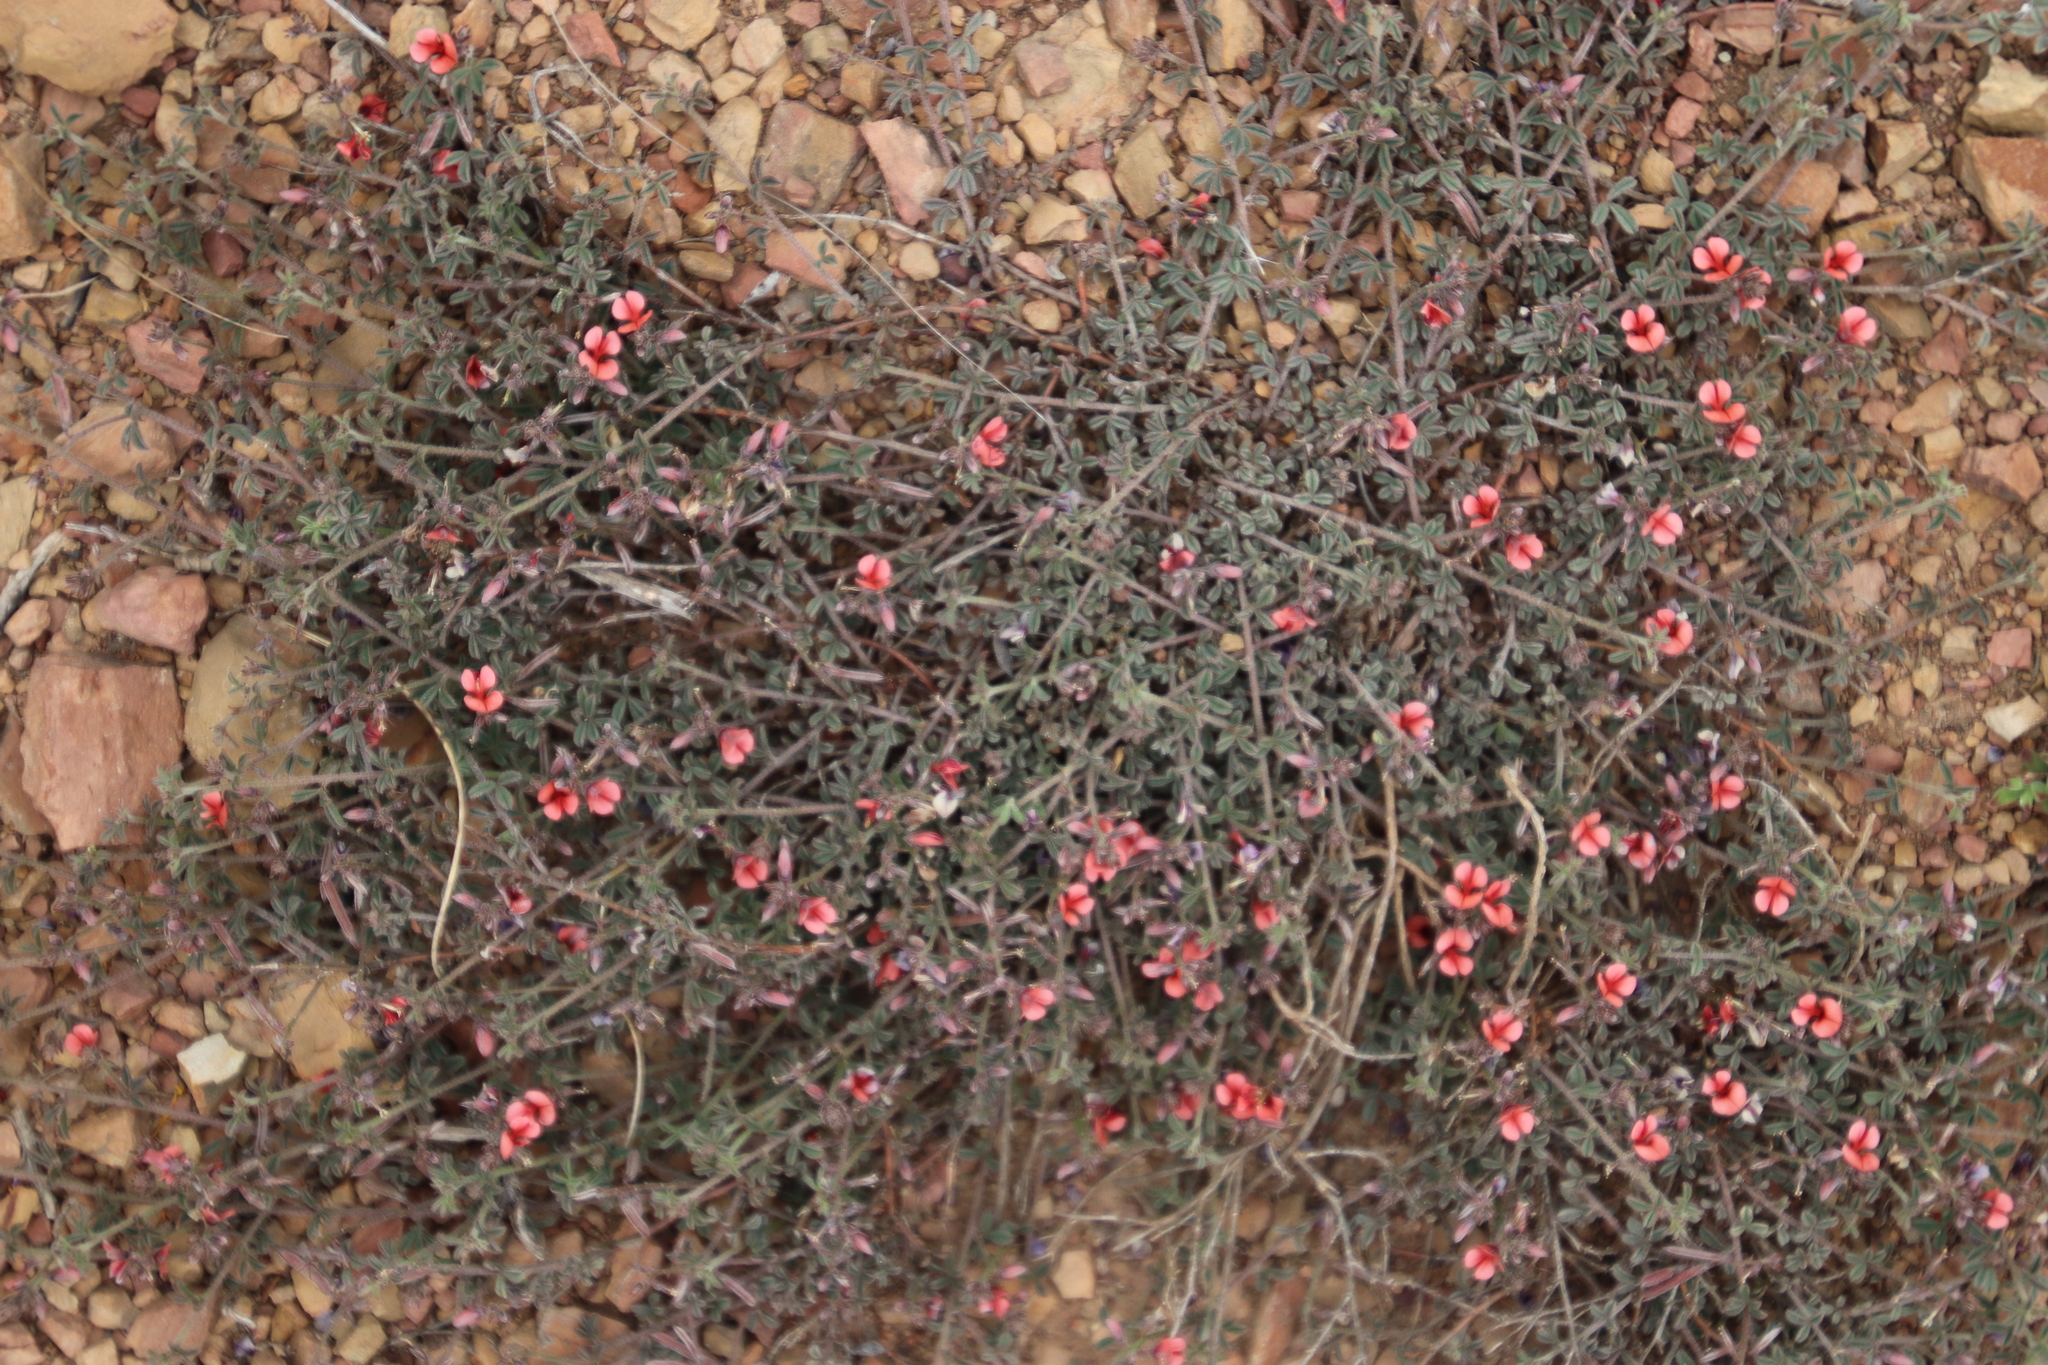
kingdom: Plantae
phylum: Tracheophyta
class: Magnoliopsida
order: Fabales
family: Fabaceae
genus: Indigofera
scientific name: Indigofera priorii
